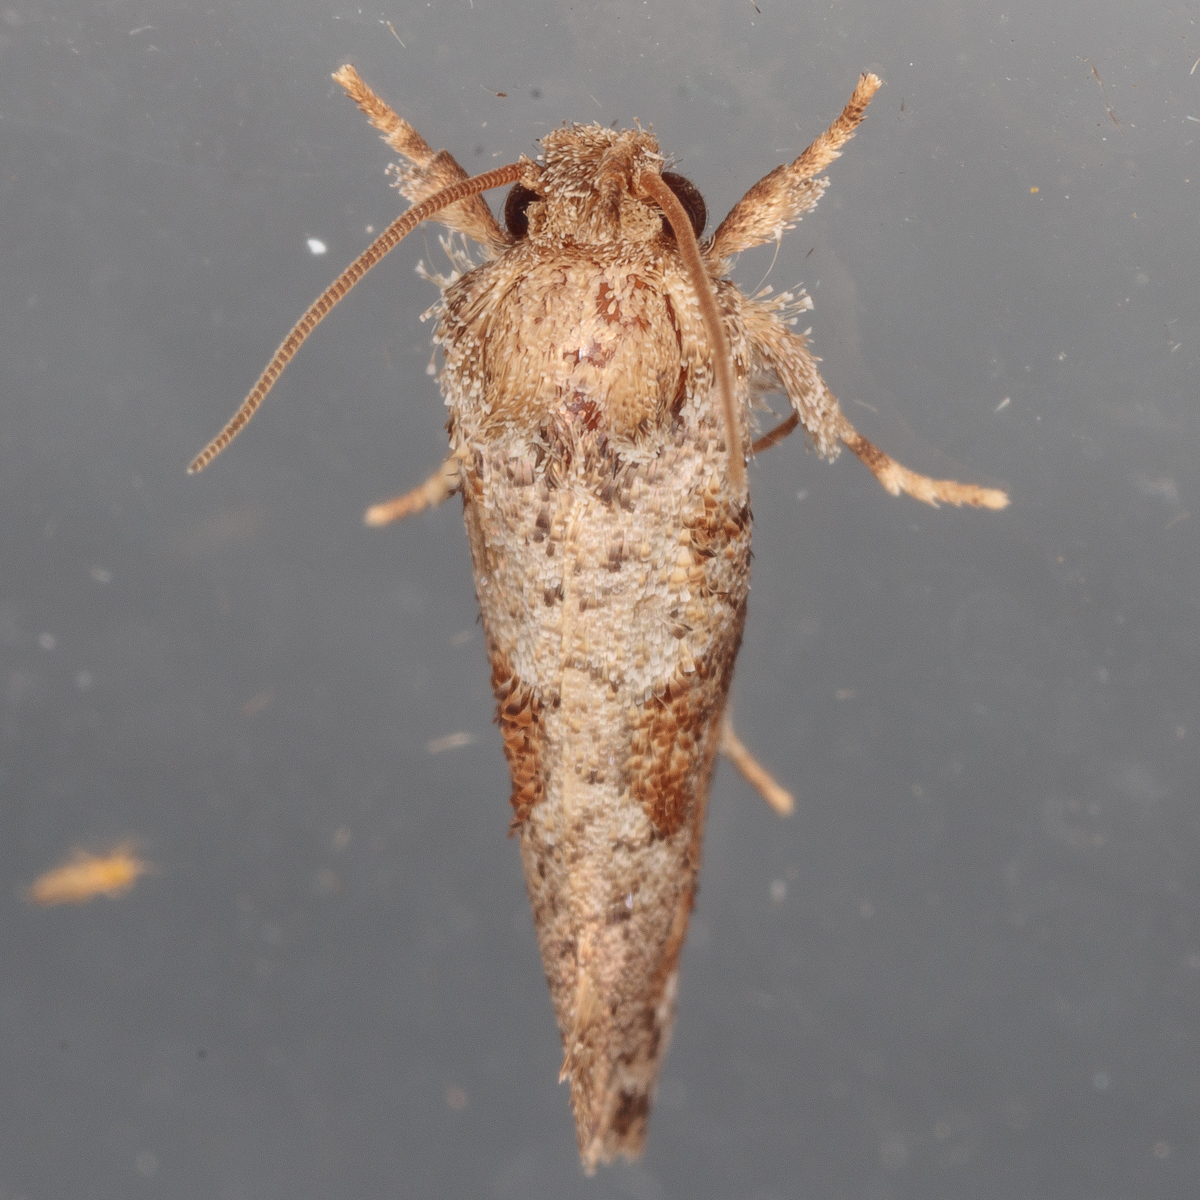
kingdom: Animalia
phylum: Arthropoda
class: Insecta
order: Lepidoptera
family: Tineidae
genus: Acrolophus
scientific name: Acrolophus piger
